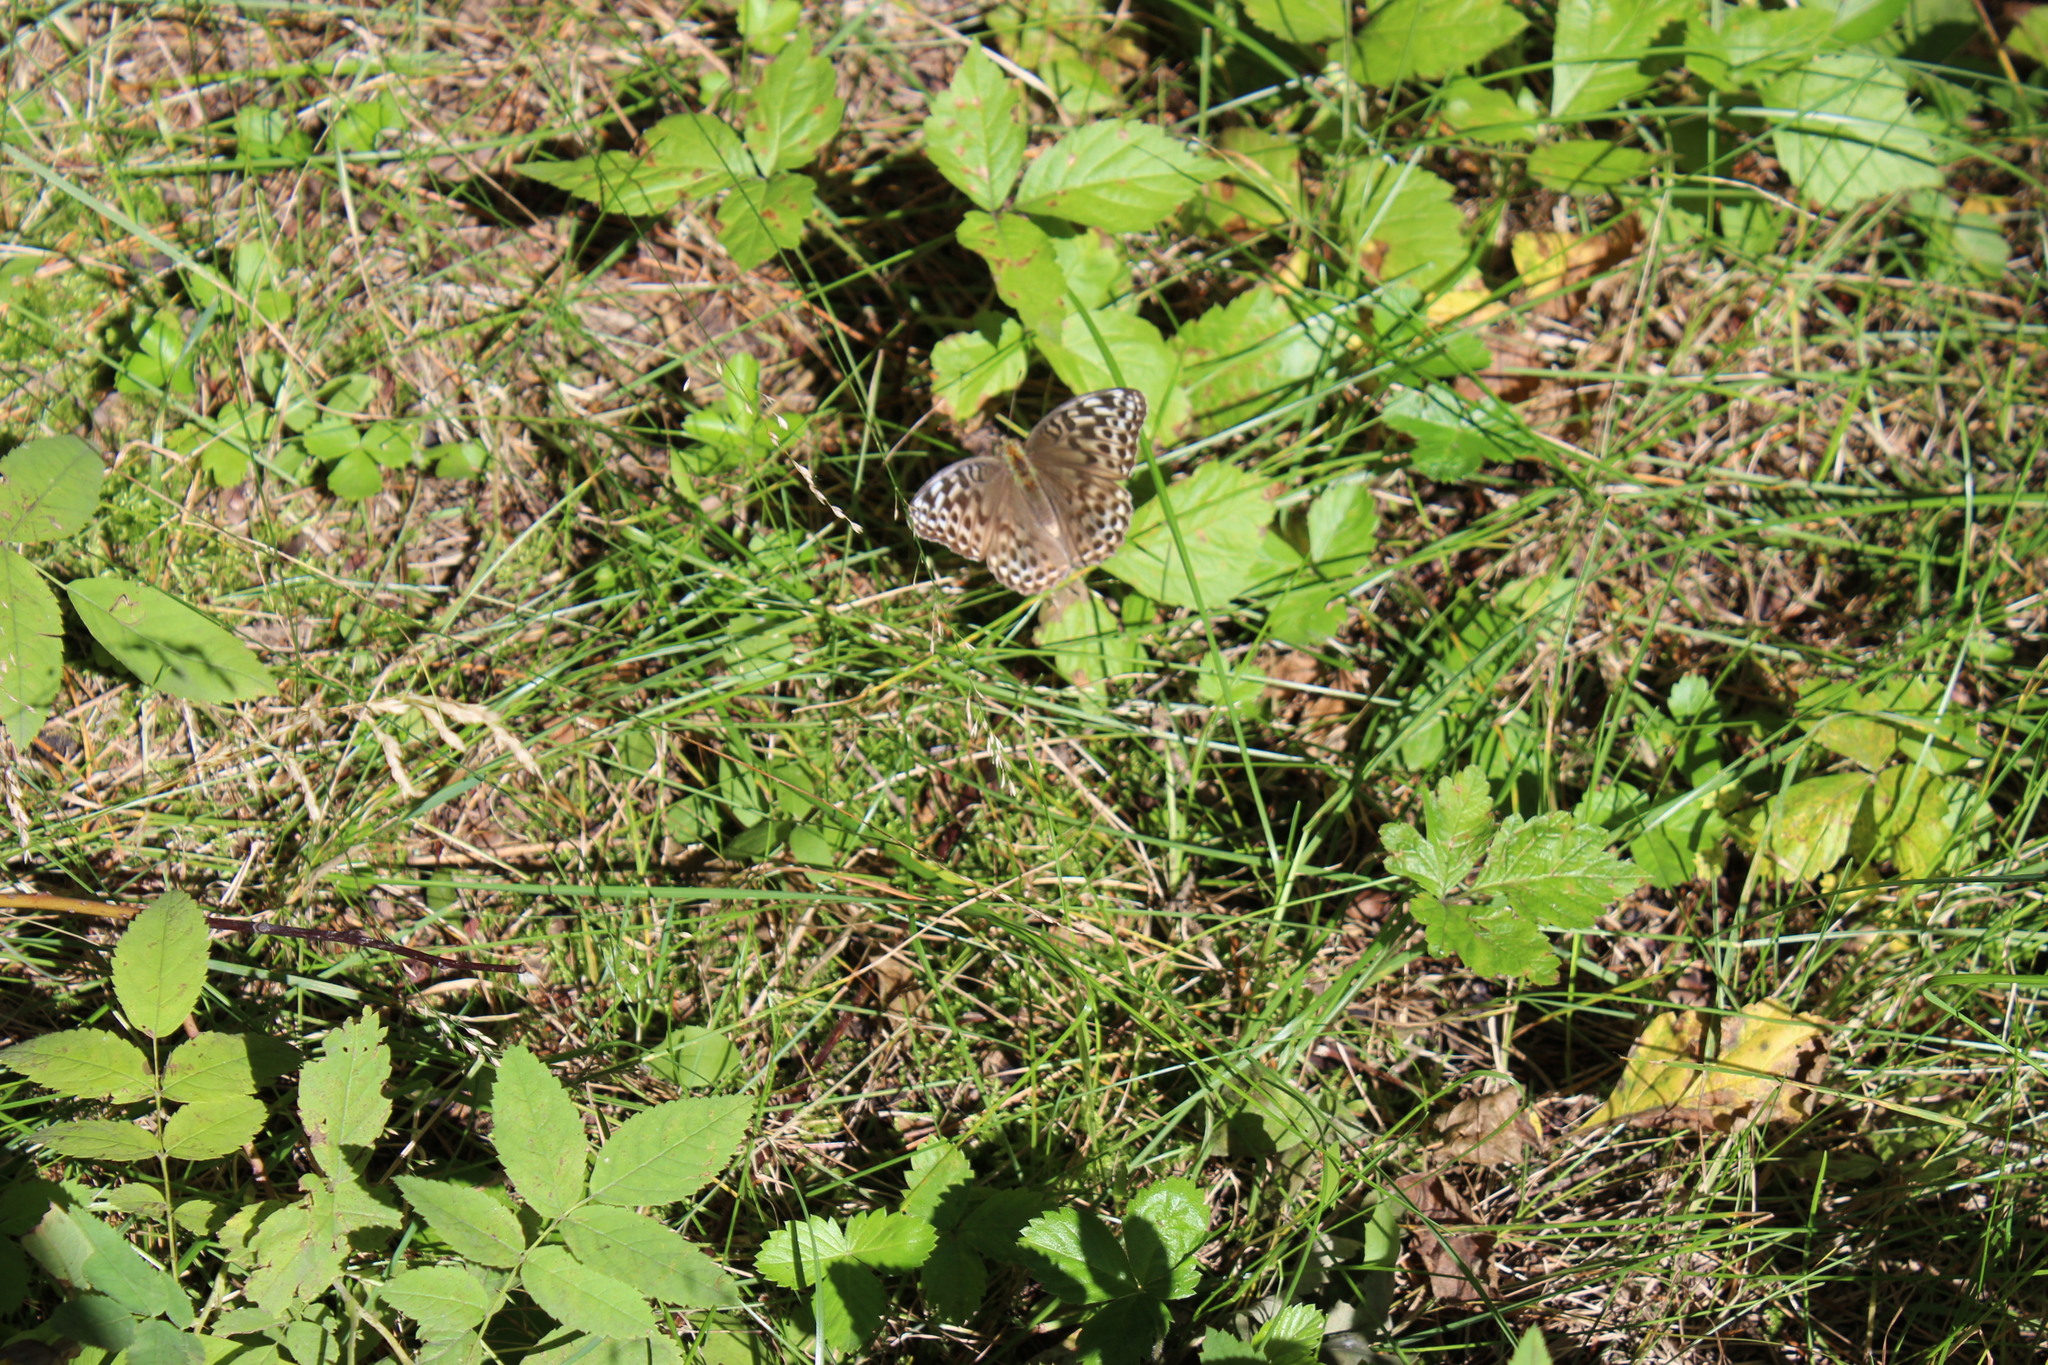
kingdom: Animalia
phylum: Arthropoda
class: Insecta
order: Lepidoptera
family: Nymphalidae
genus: Argynnis
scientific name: Argynnis paphia
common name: Silver-washed fritillary
